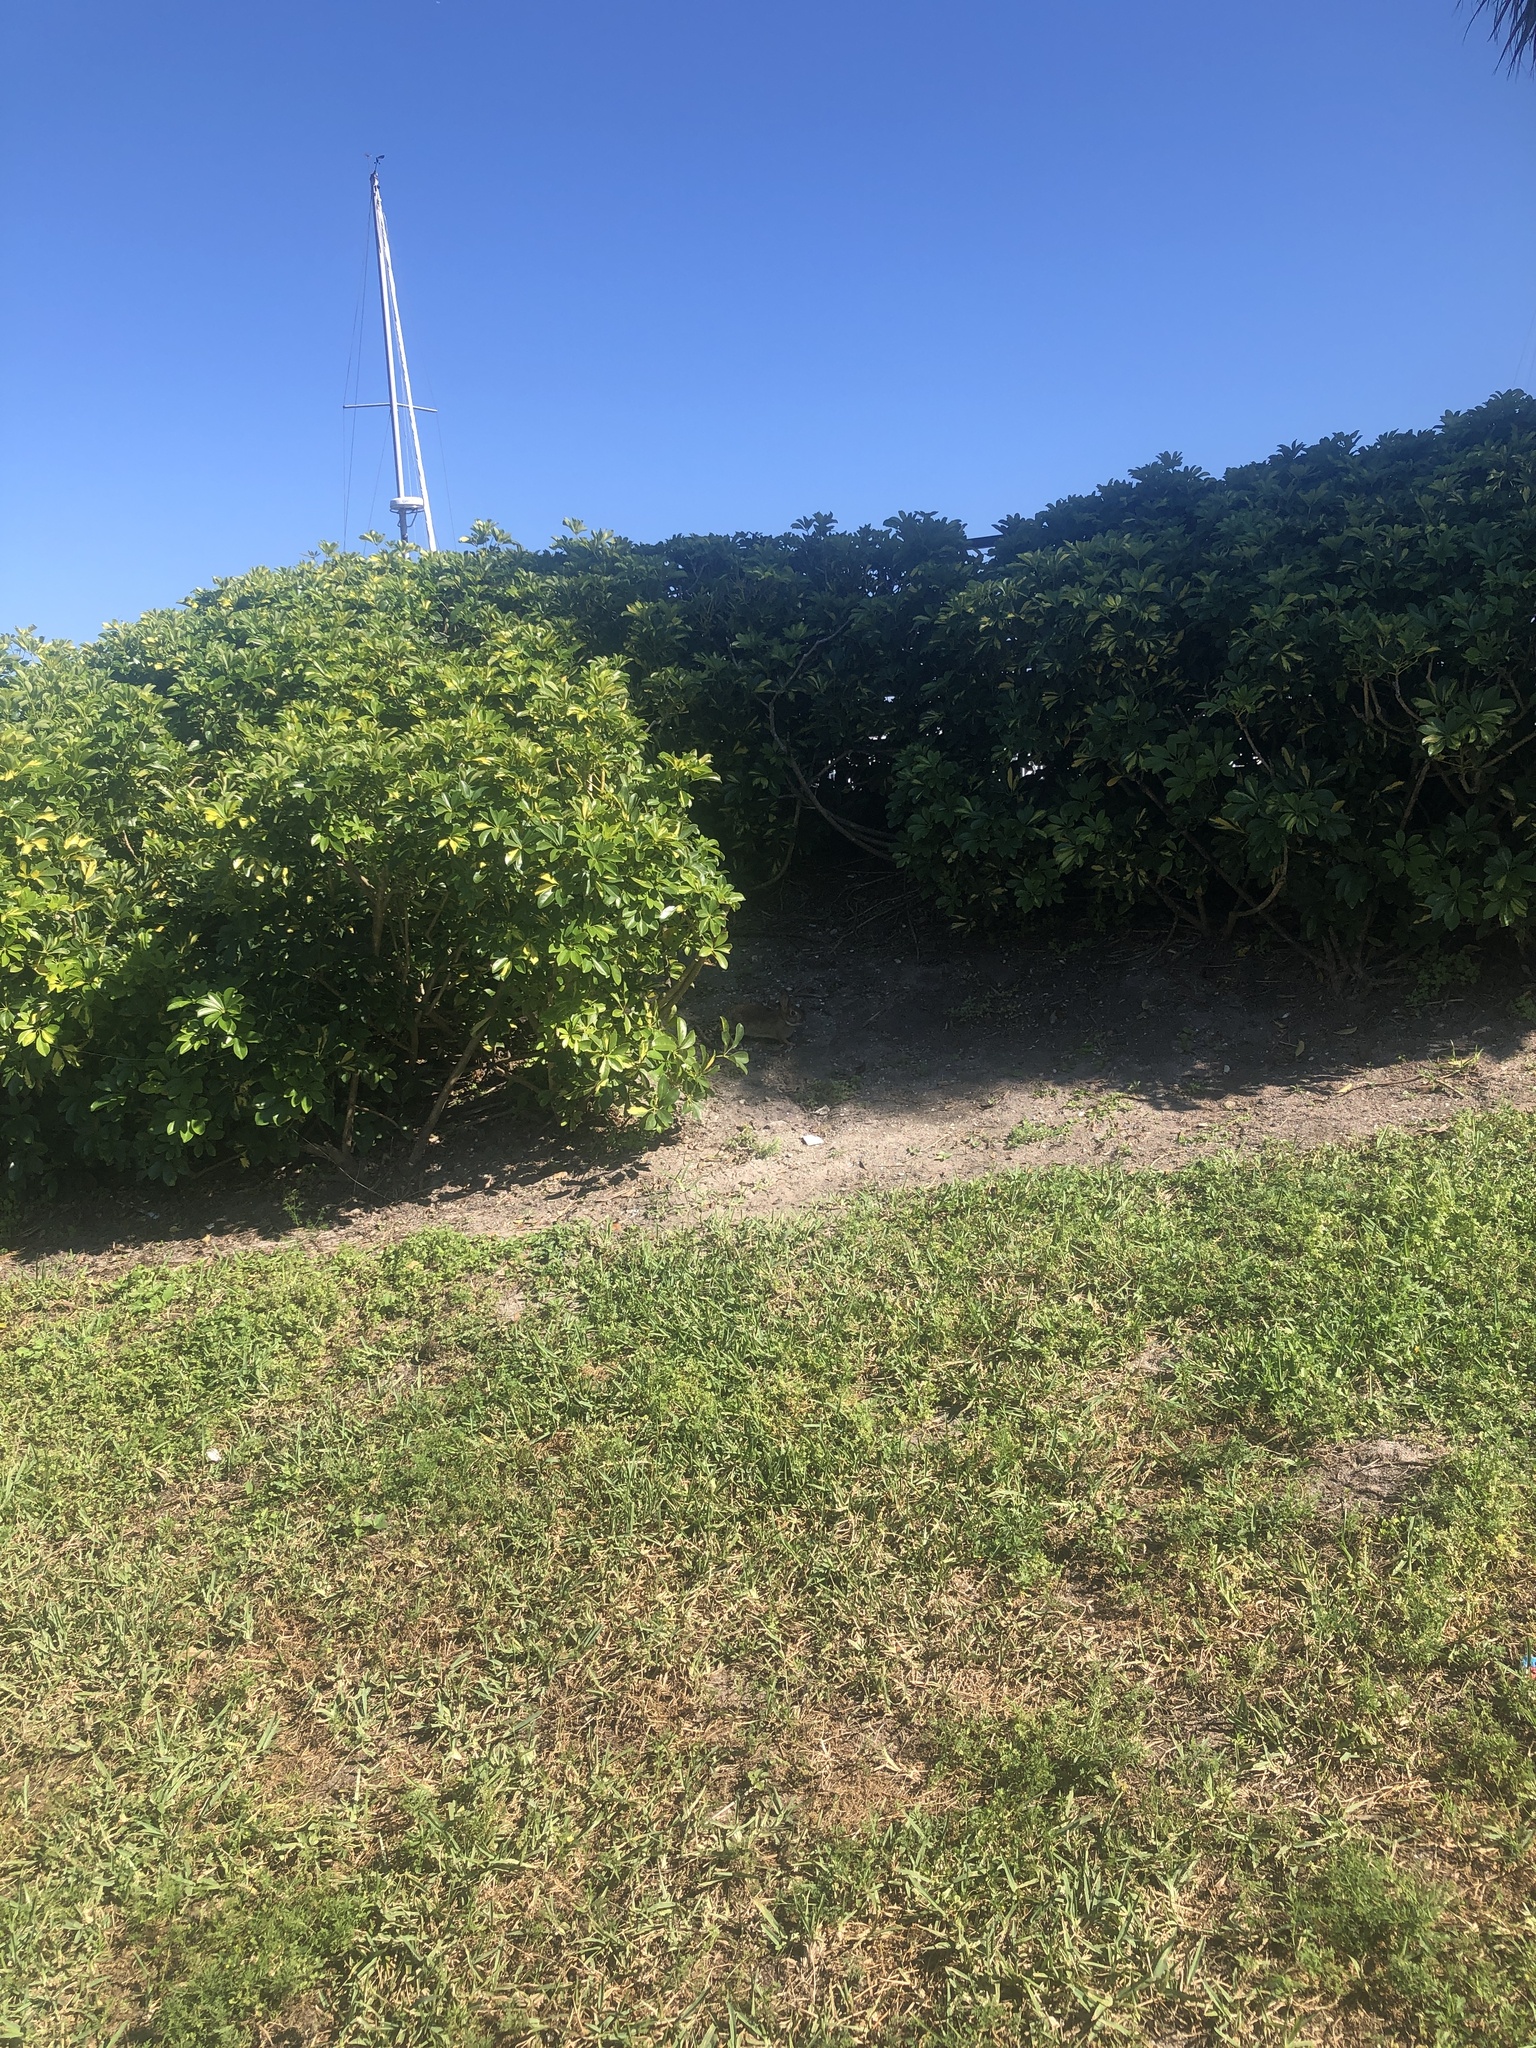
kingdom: Animalia
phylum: Chordata
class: Mammalia
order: Lagomorpha
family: Leporidae
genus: Sylvilagus
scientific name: Sylvilagus floridanus
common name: Eastern cottontail
